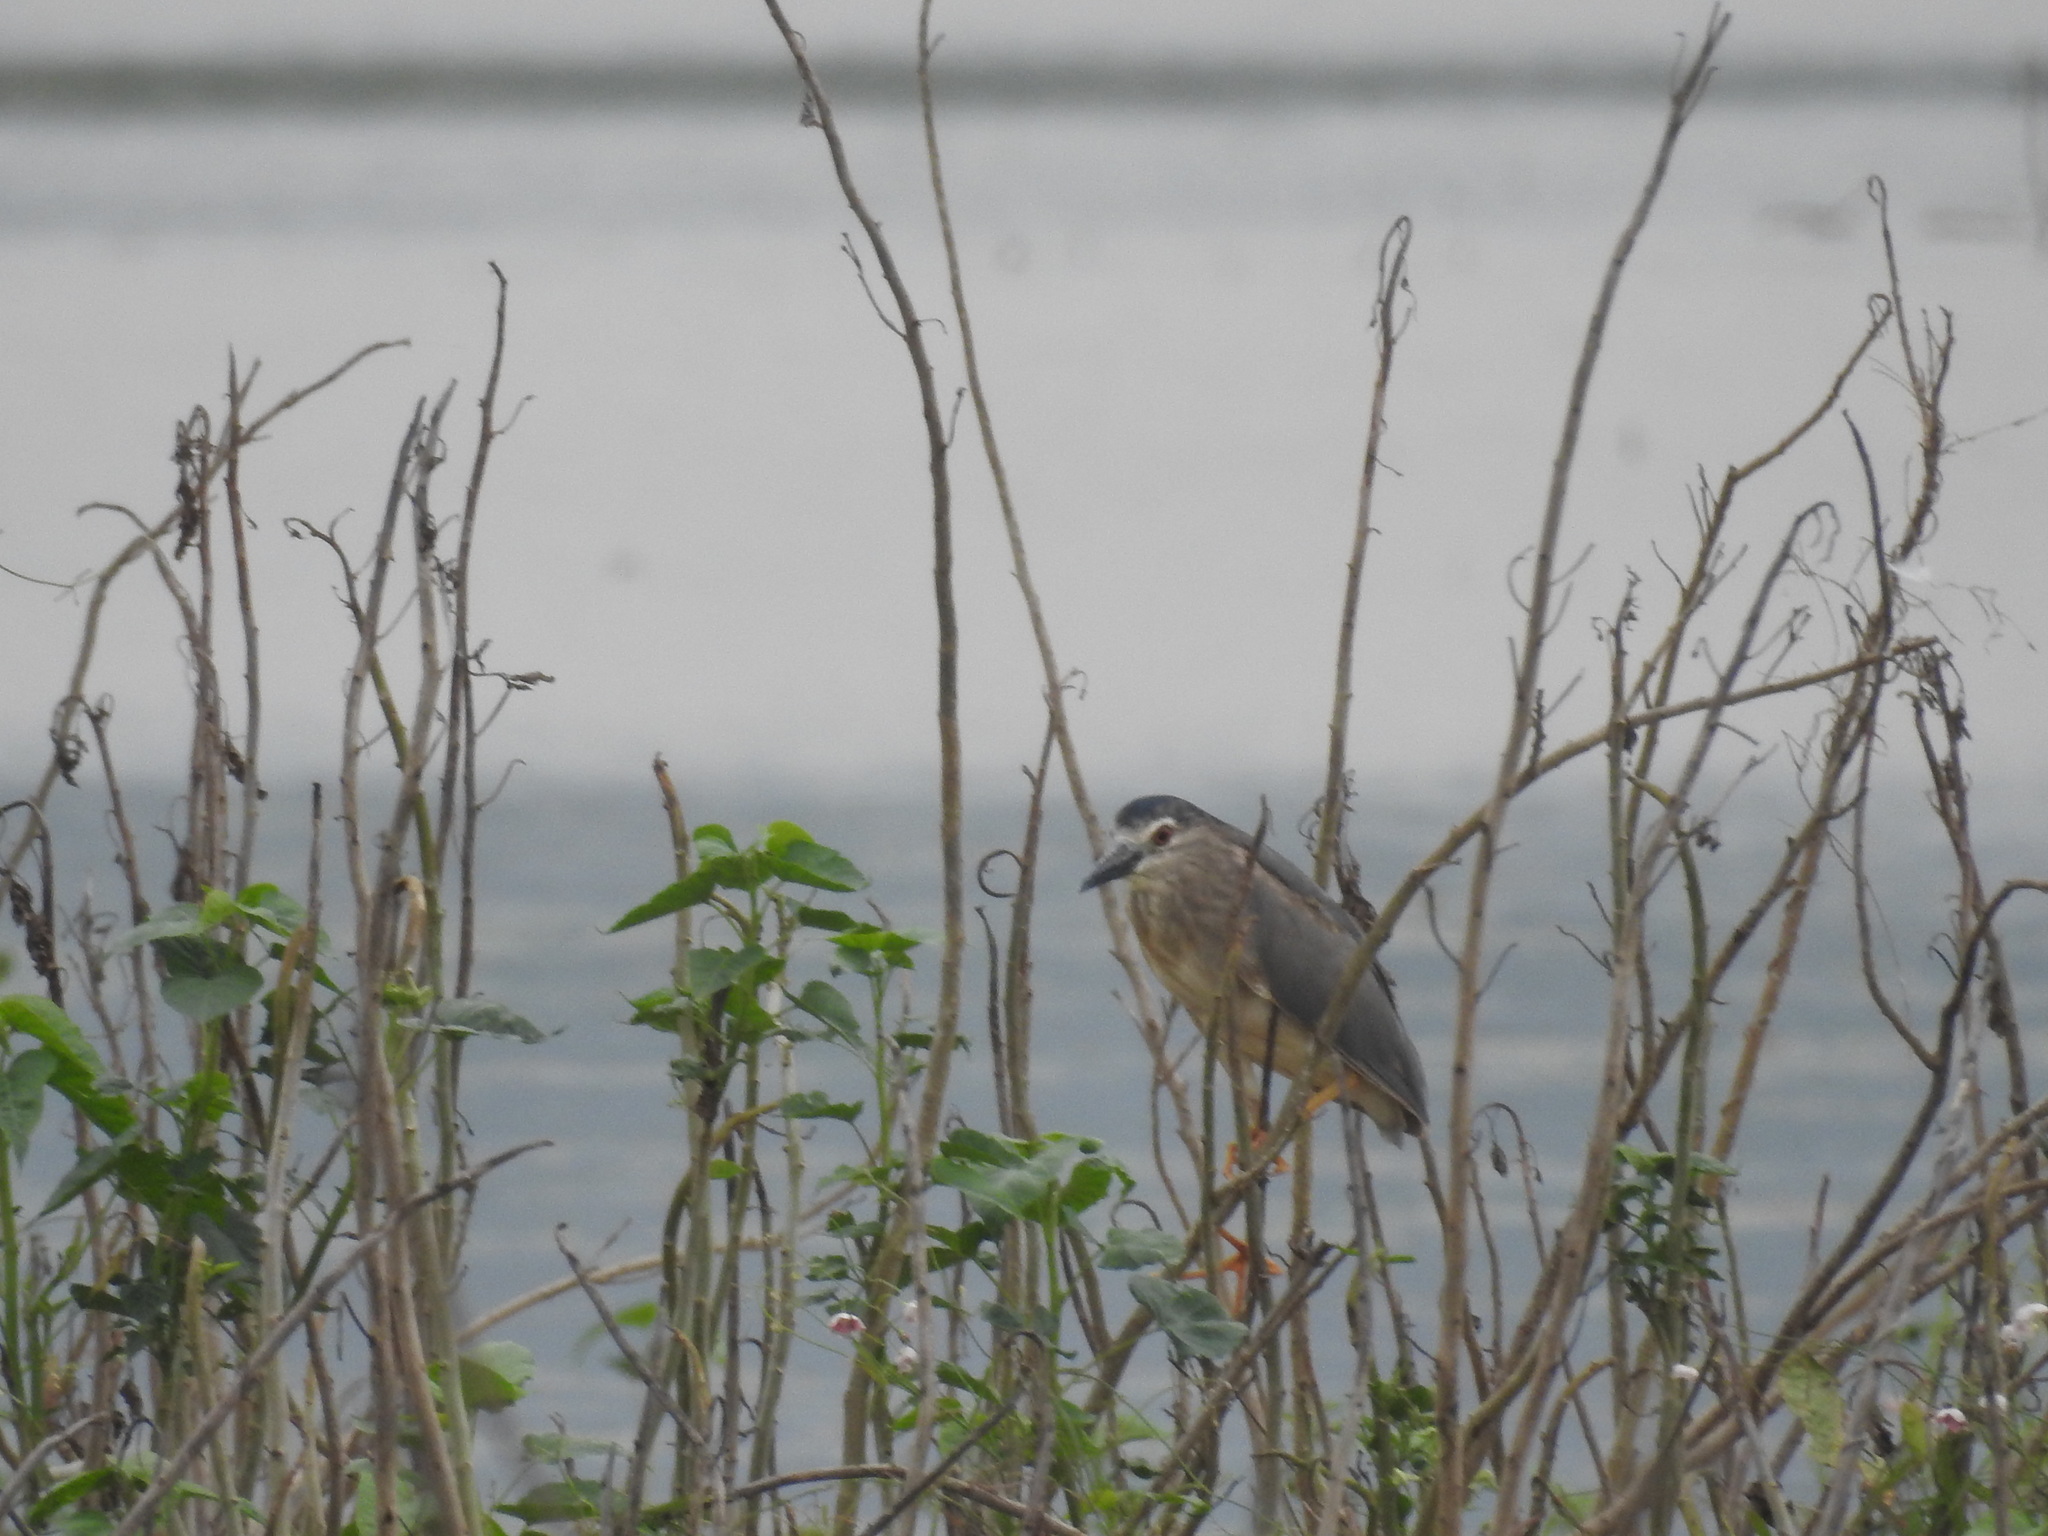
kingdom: Animalia
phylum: Chordata
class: Aves
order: Pelecaniformes
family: Ardeidae
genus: Nycticorax
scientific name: Nycticorax nycticorax
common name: Black-crowned night heron
